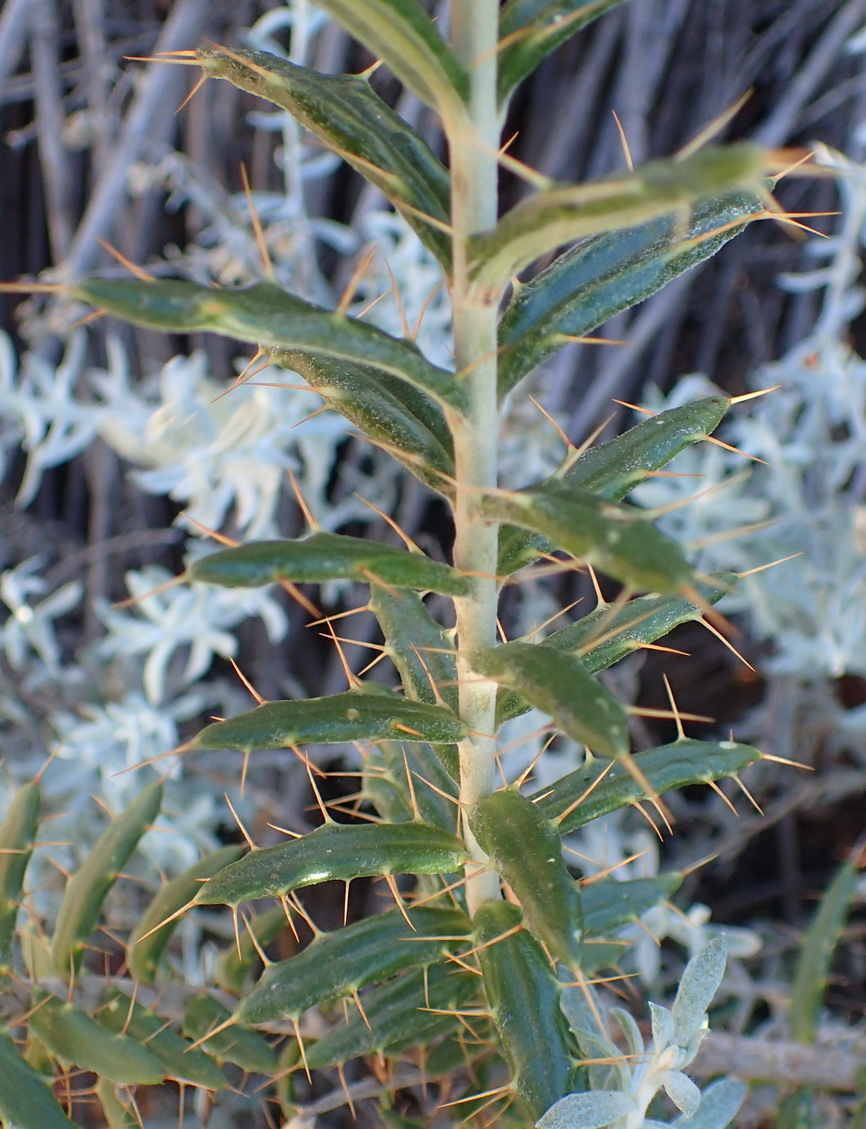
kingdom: Plantae
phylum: Tracheophyta
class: Magnoliopsida
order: Asterales
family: Asteraceae
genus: Berkheya
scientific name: Berkheya angustifolia
